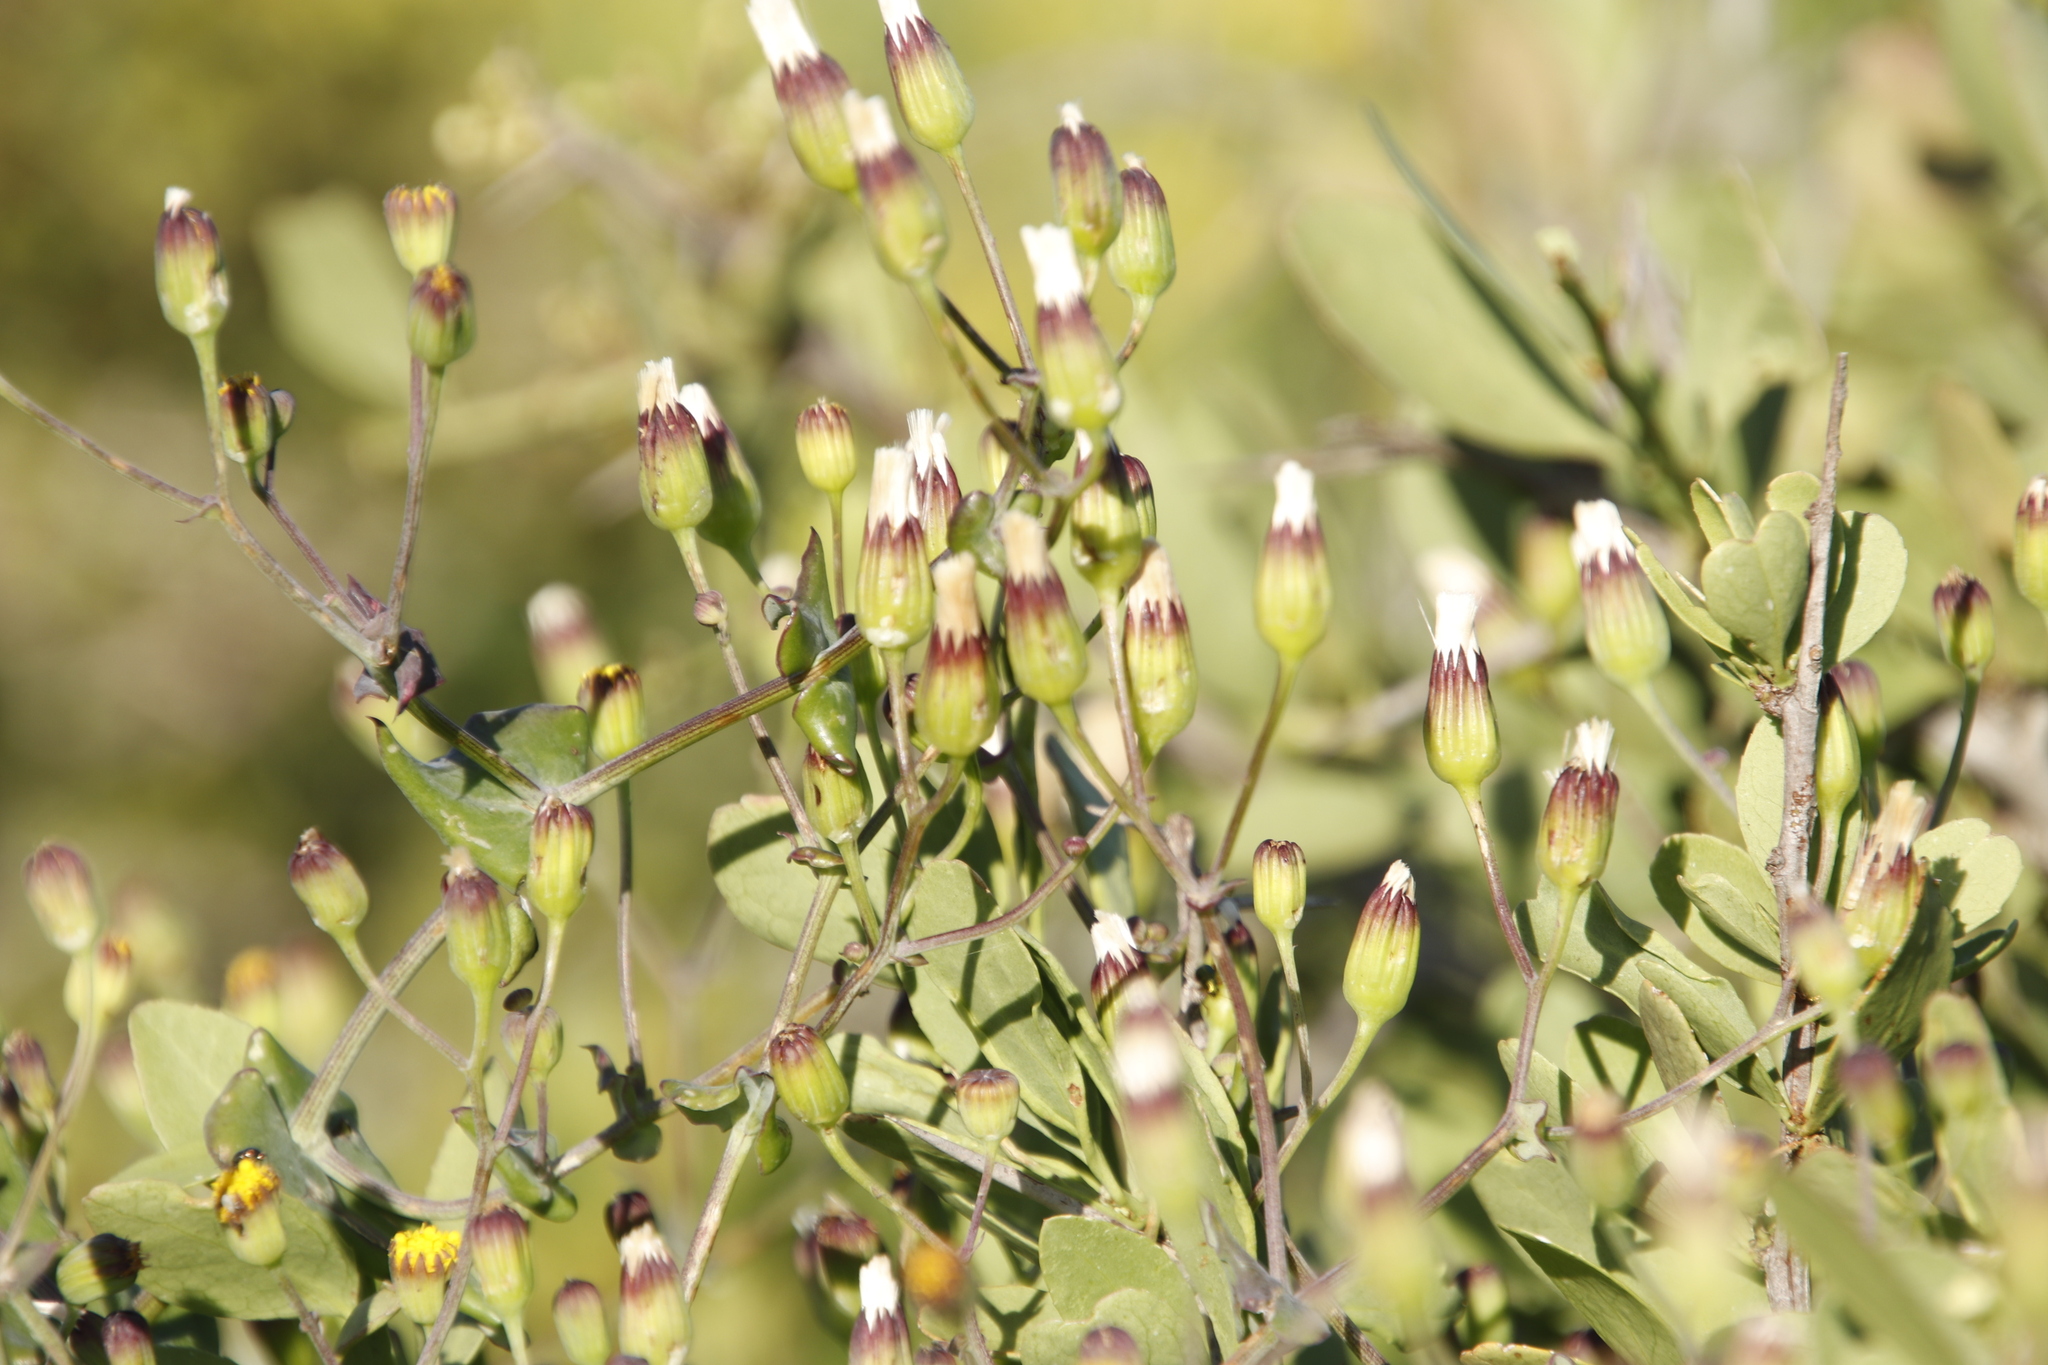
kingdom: Plantae
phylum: Tracheophyta
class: Magnoliopsida
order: Asterales
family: Asteraceae
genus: Othonna
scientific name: Othonna undulosa
